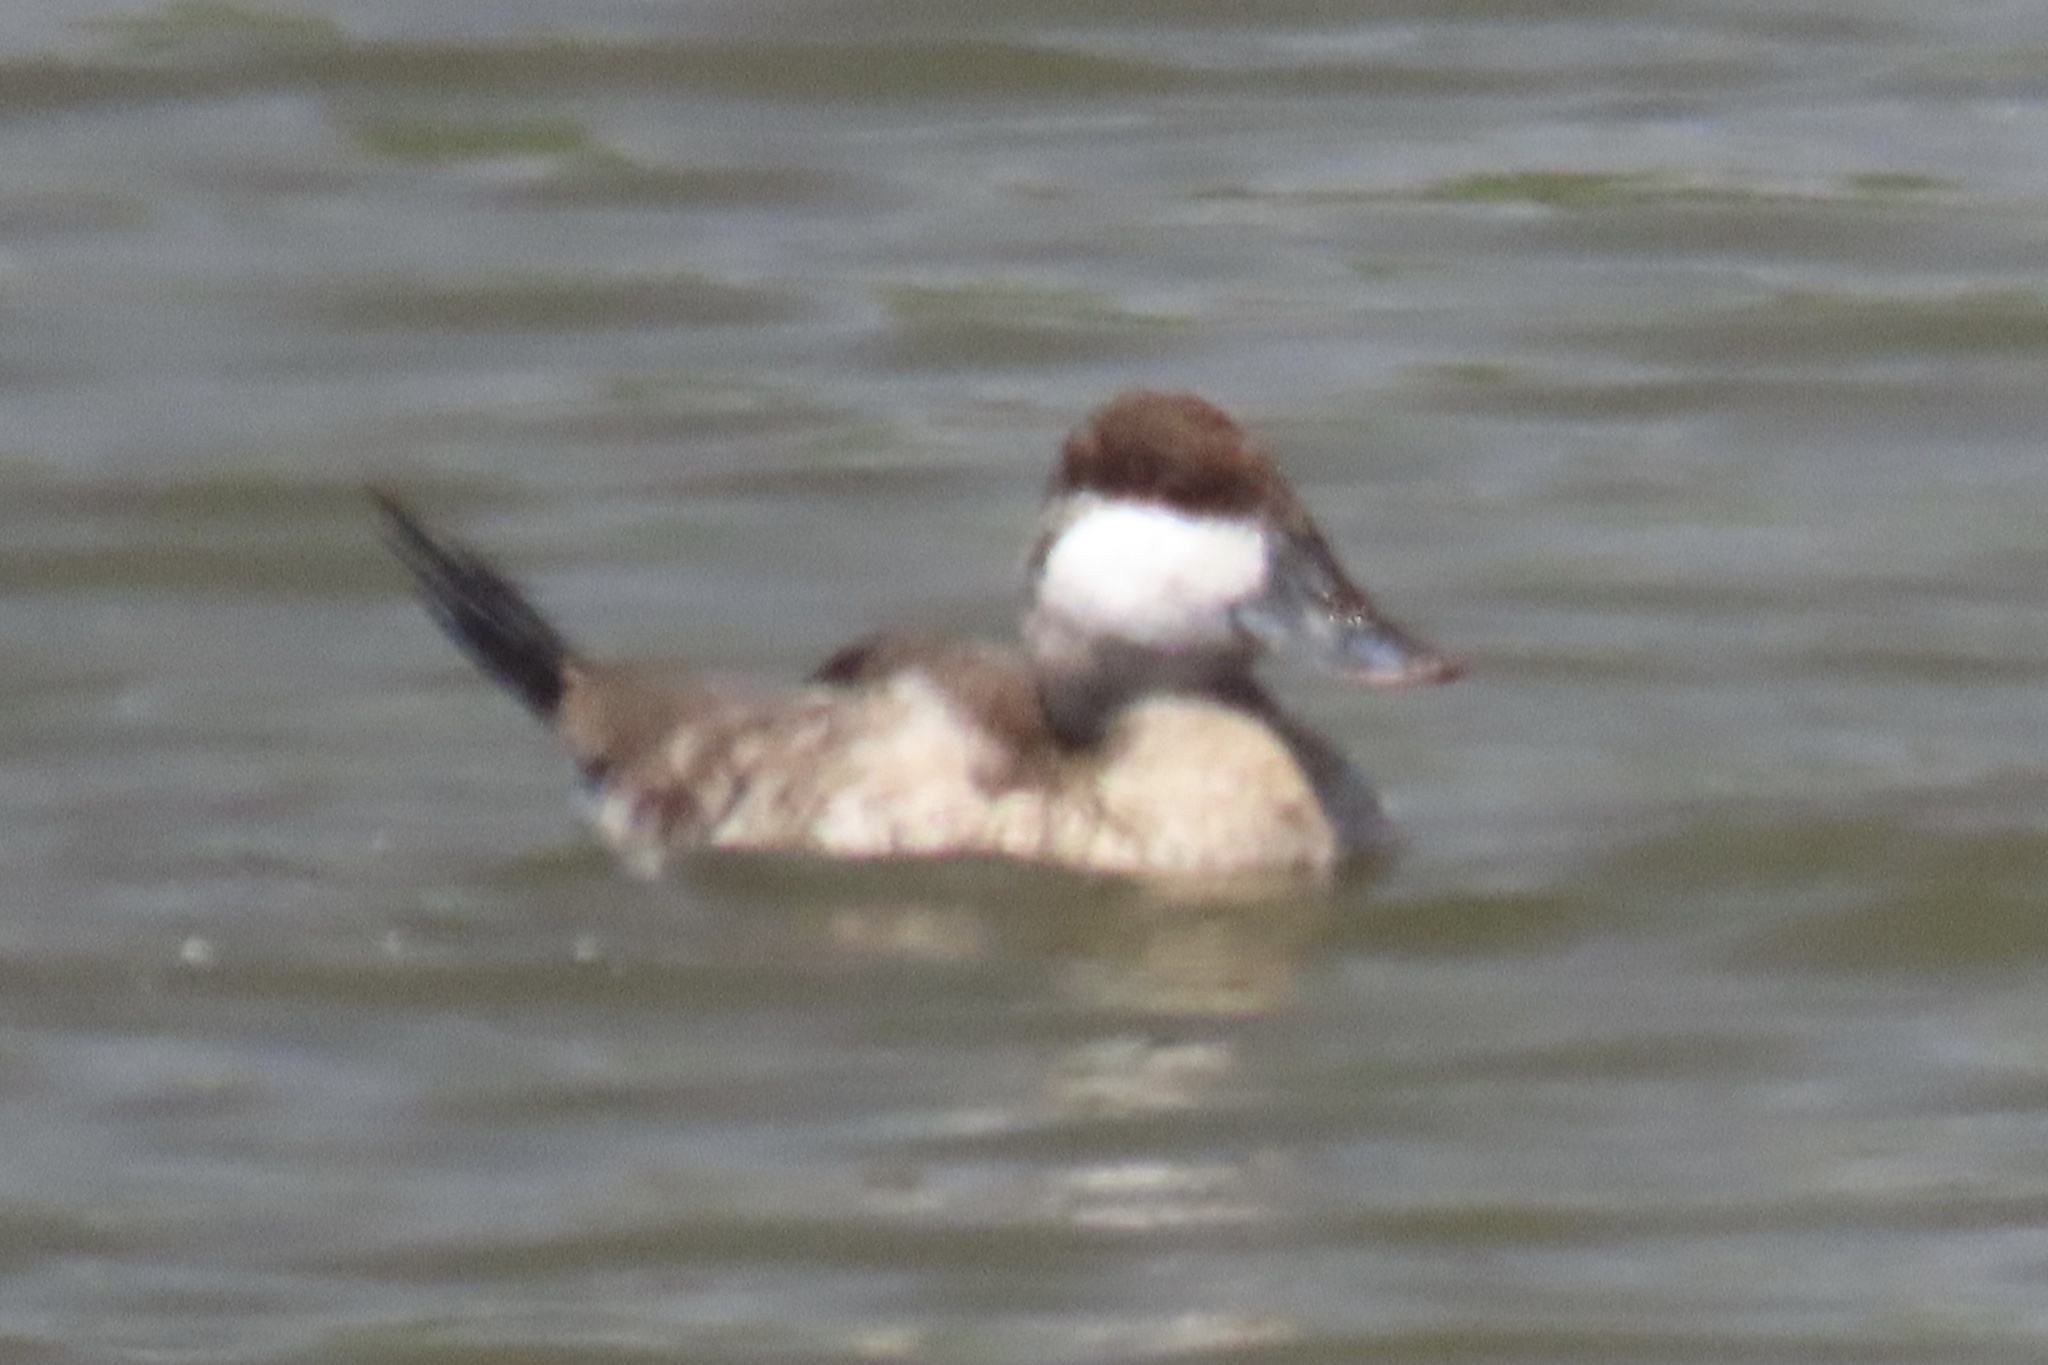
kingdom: Animalia
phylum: Chordata
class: Aves
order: Anseriformes
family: Anatidae
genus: Oxyura
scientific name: Oxyura jamaicensis
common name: Ruddy duck
